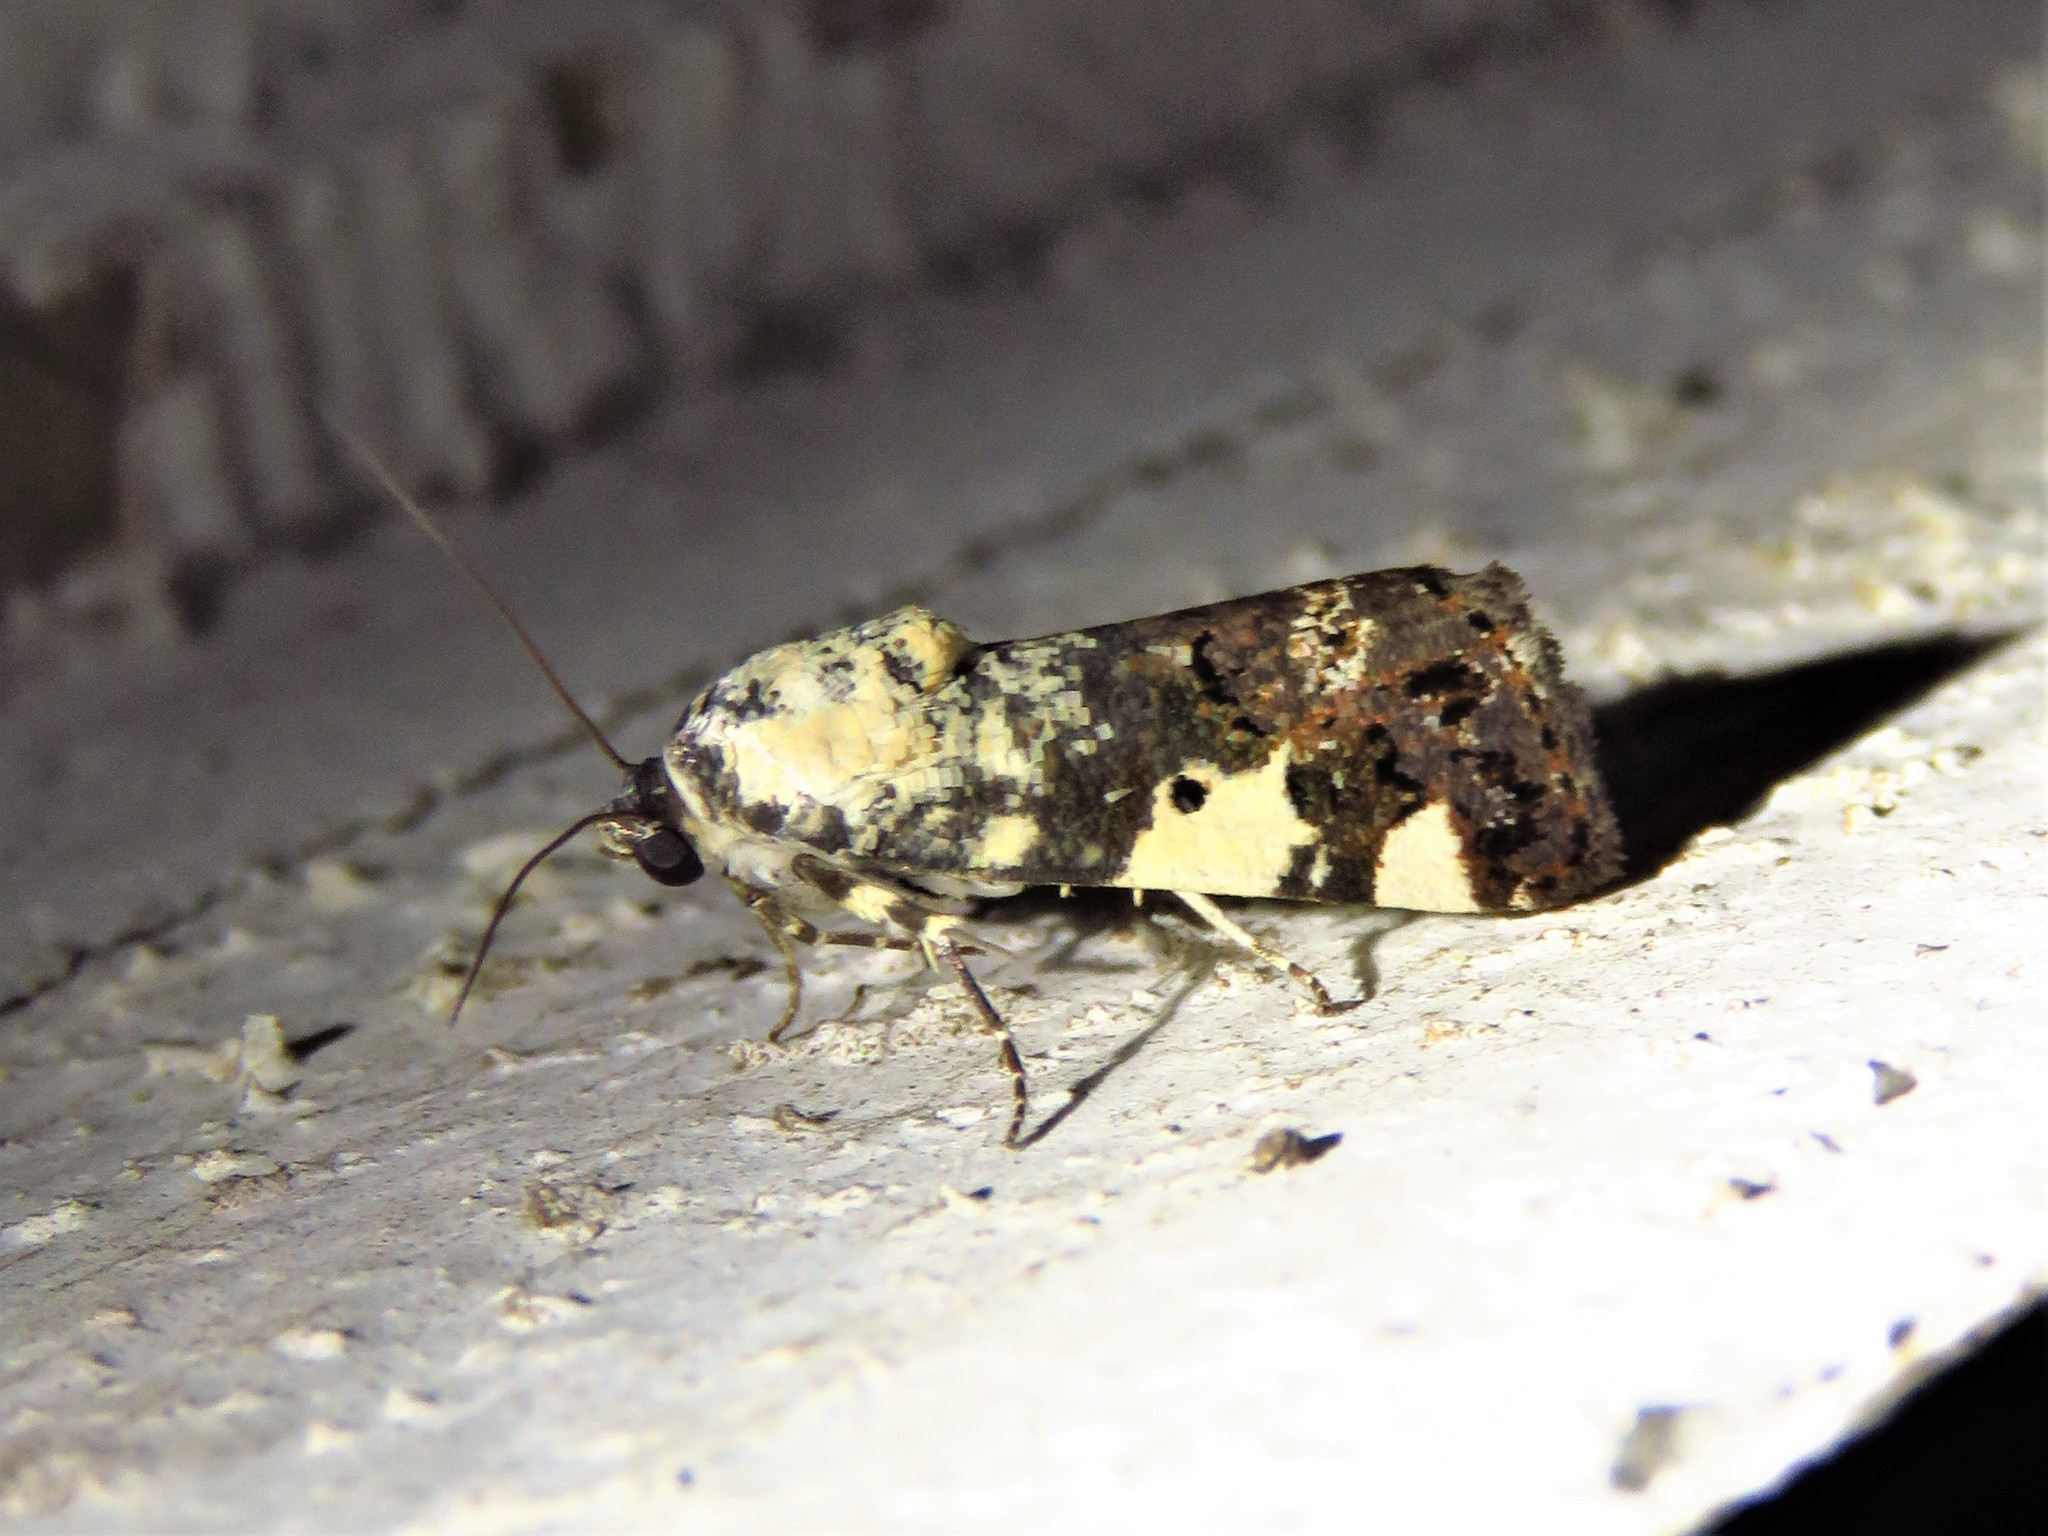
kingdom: Animalia
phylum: Arthropoda
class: Insecta
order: Lepidoptera
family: Noctuidae
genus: Acontia
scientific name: Acontia aprica
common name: Nun
